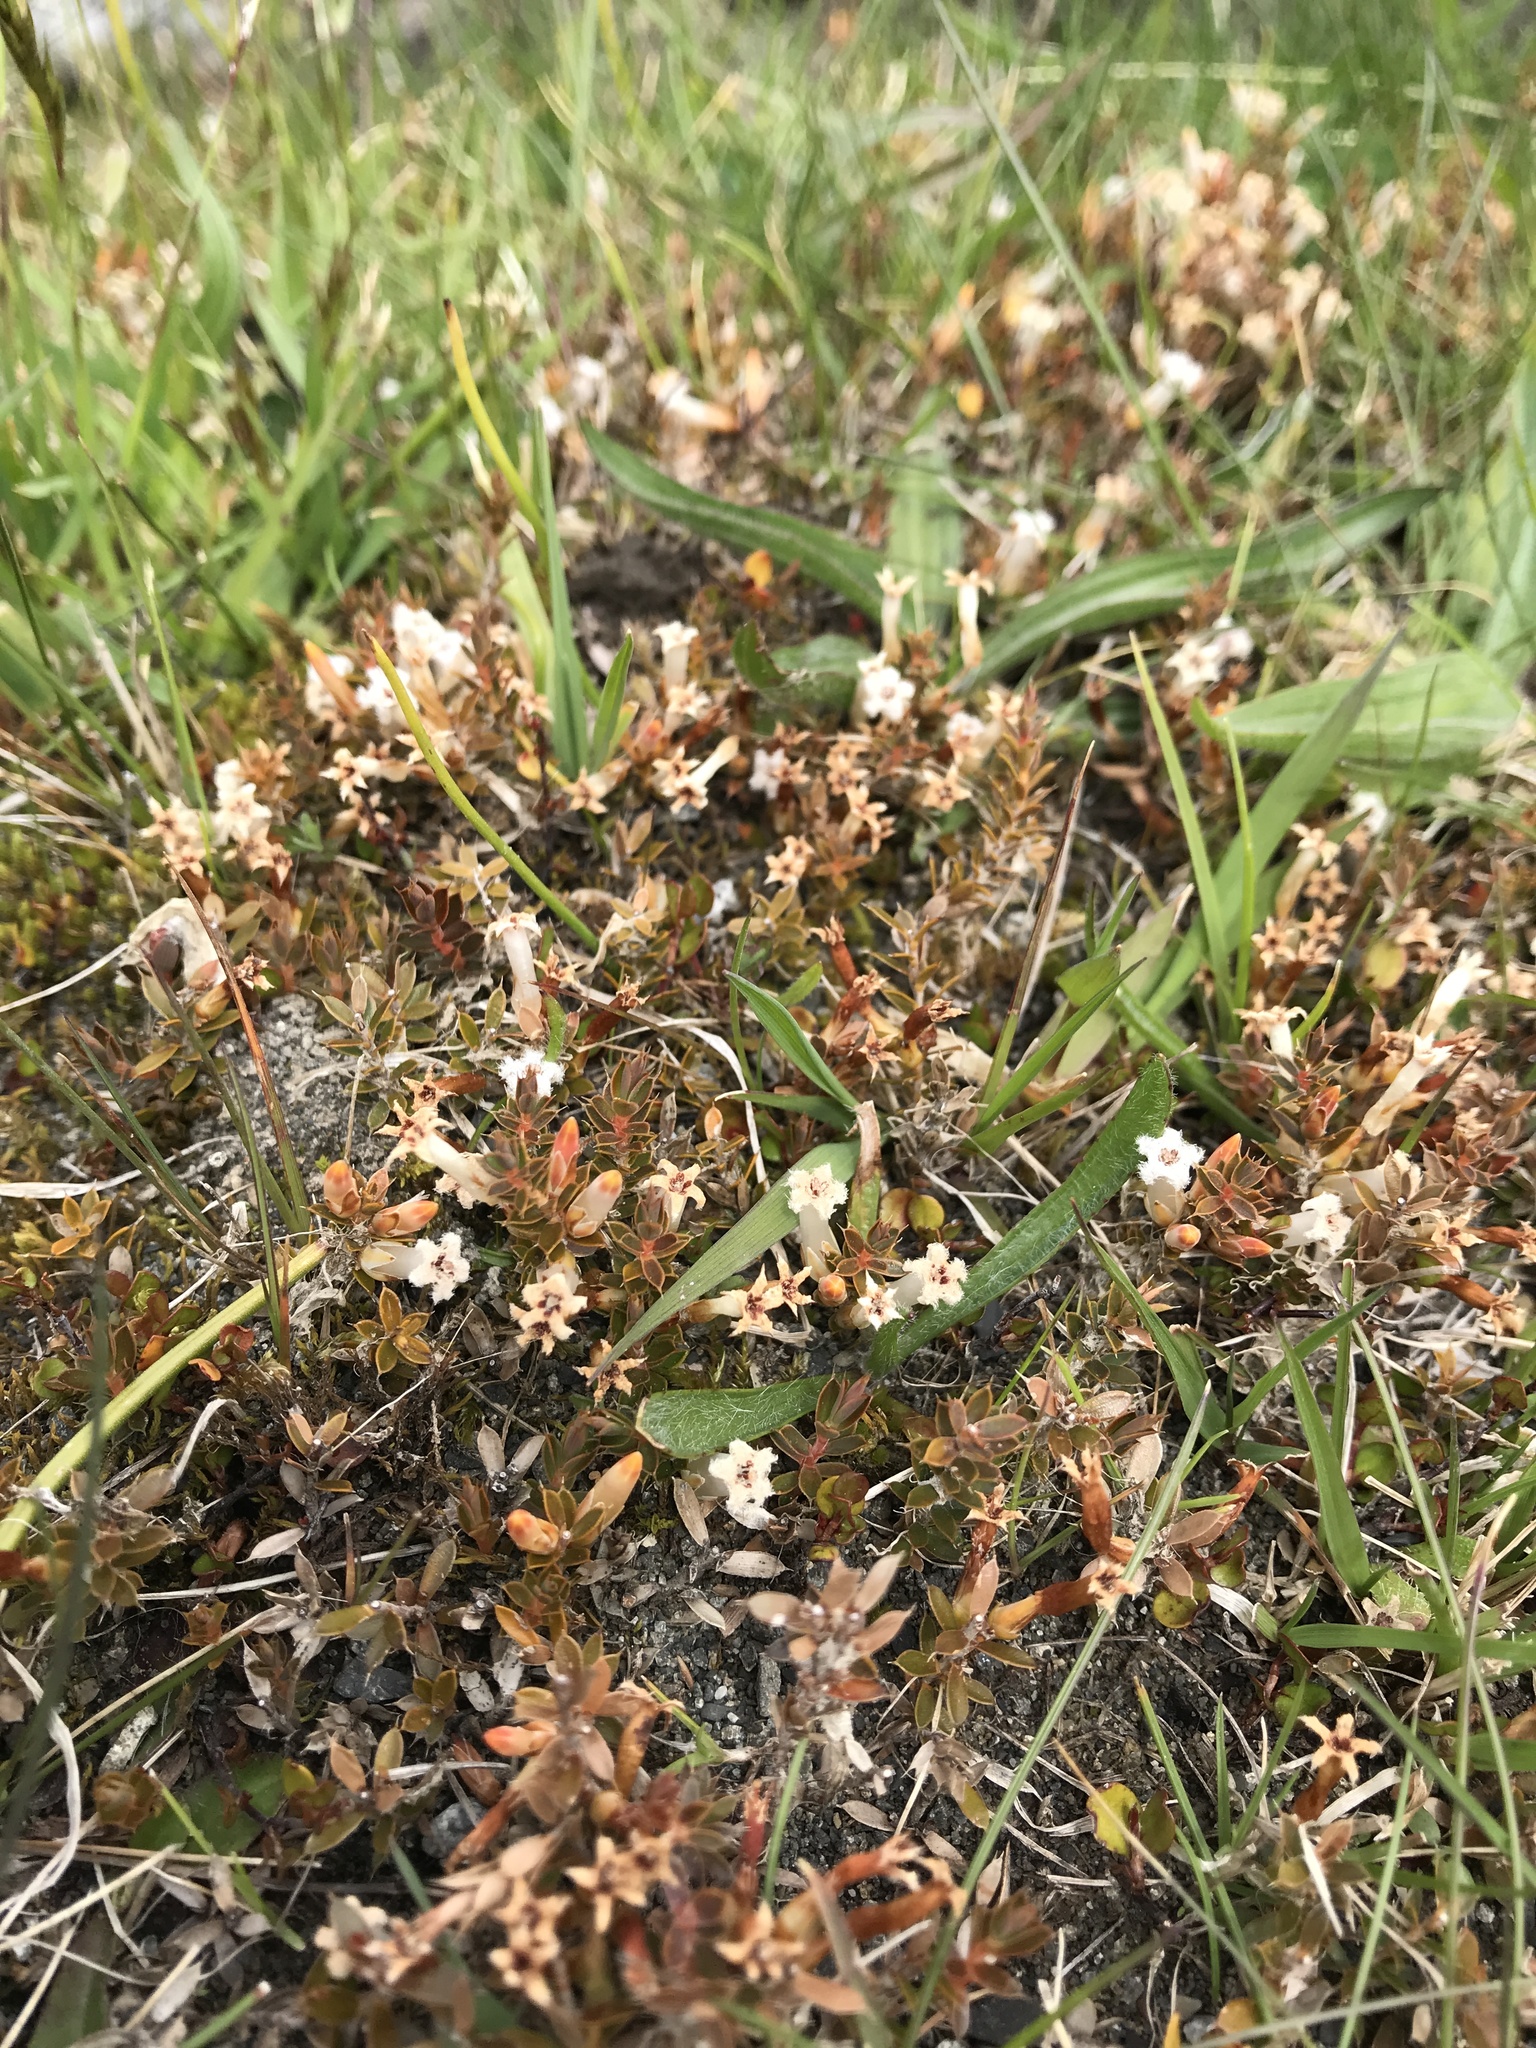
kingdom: Plantae
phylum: Tracheophyta
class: Magnoliopsida
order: Ericales
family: Ericaceae
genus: Styphelia
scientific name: Styphelia nesophila
